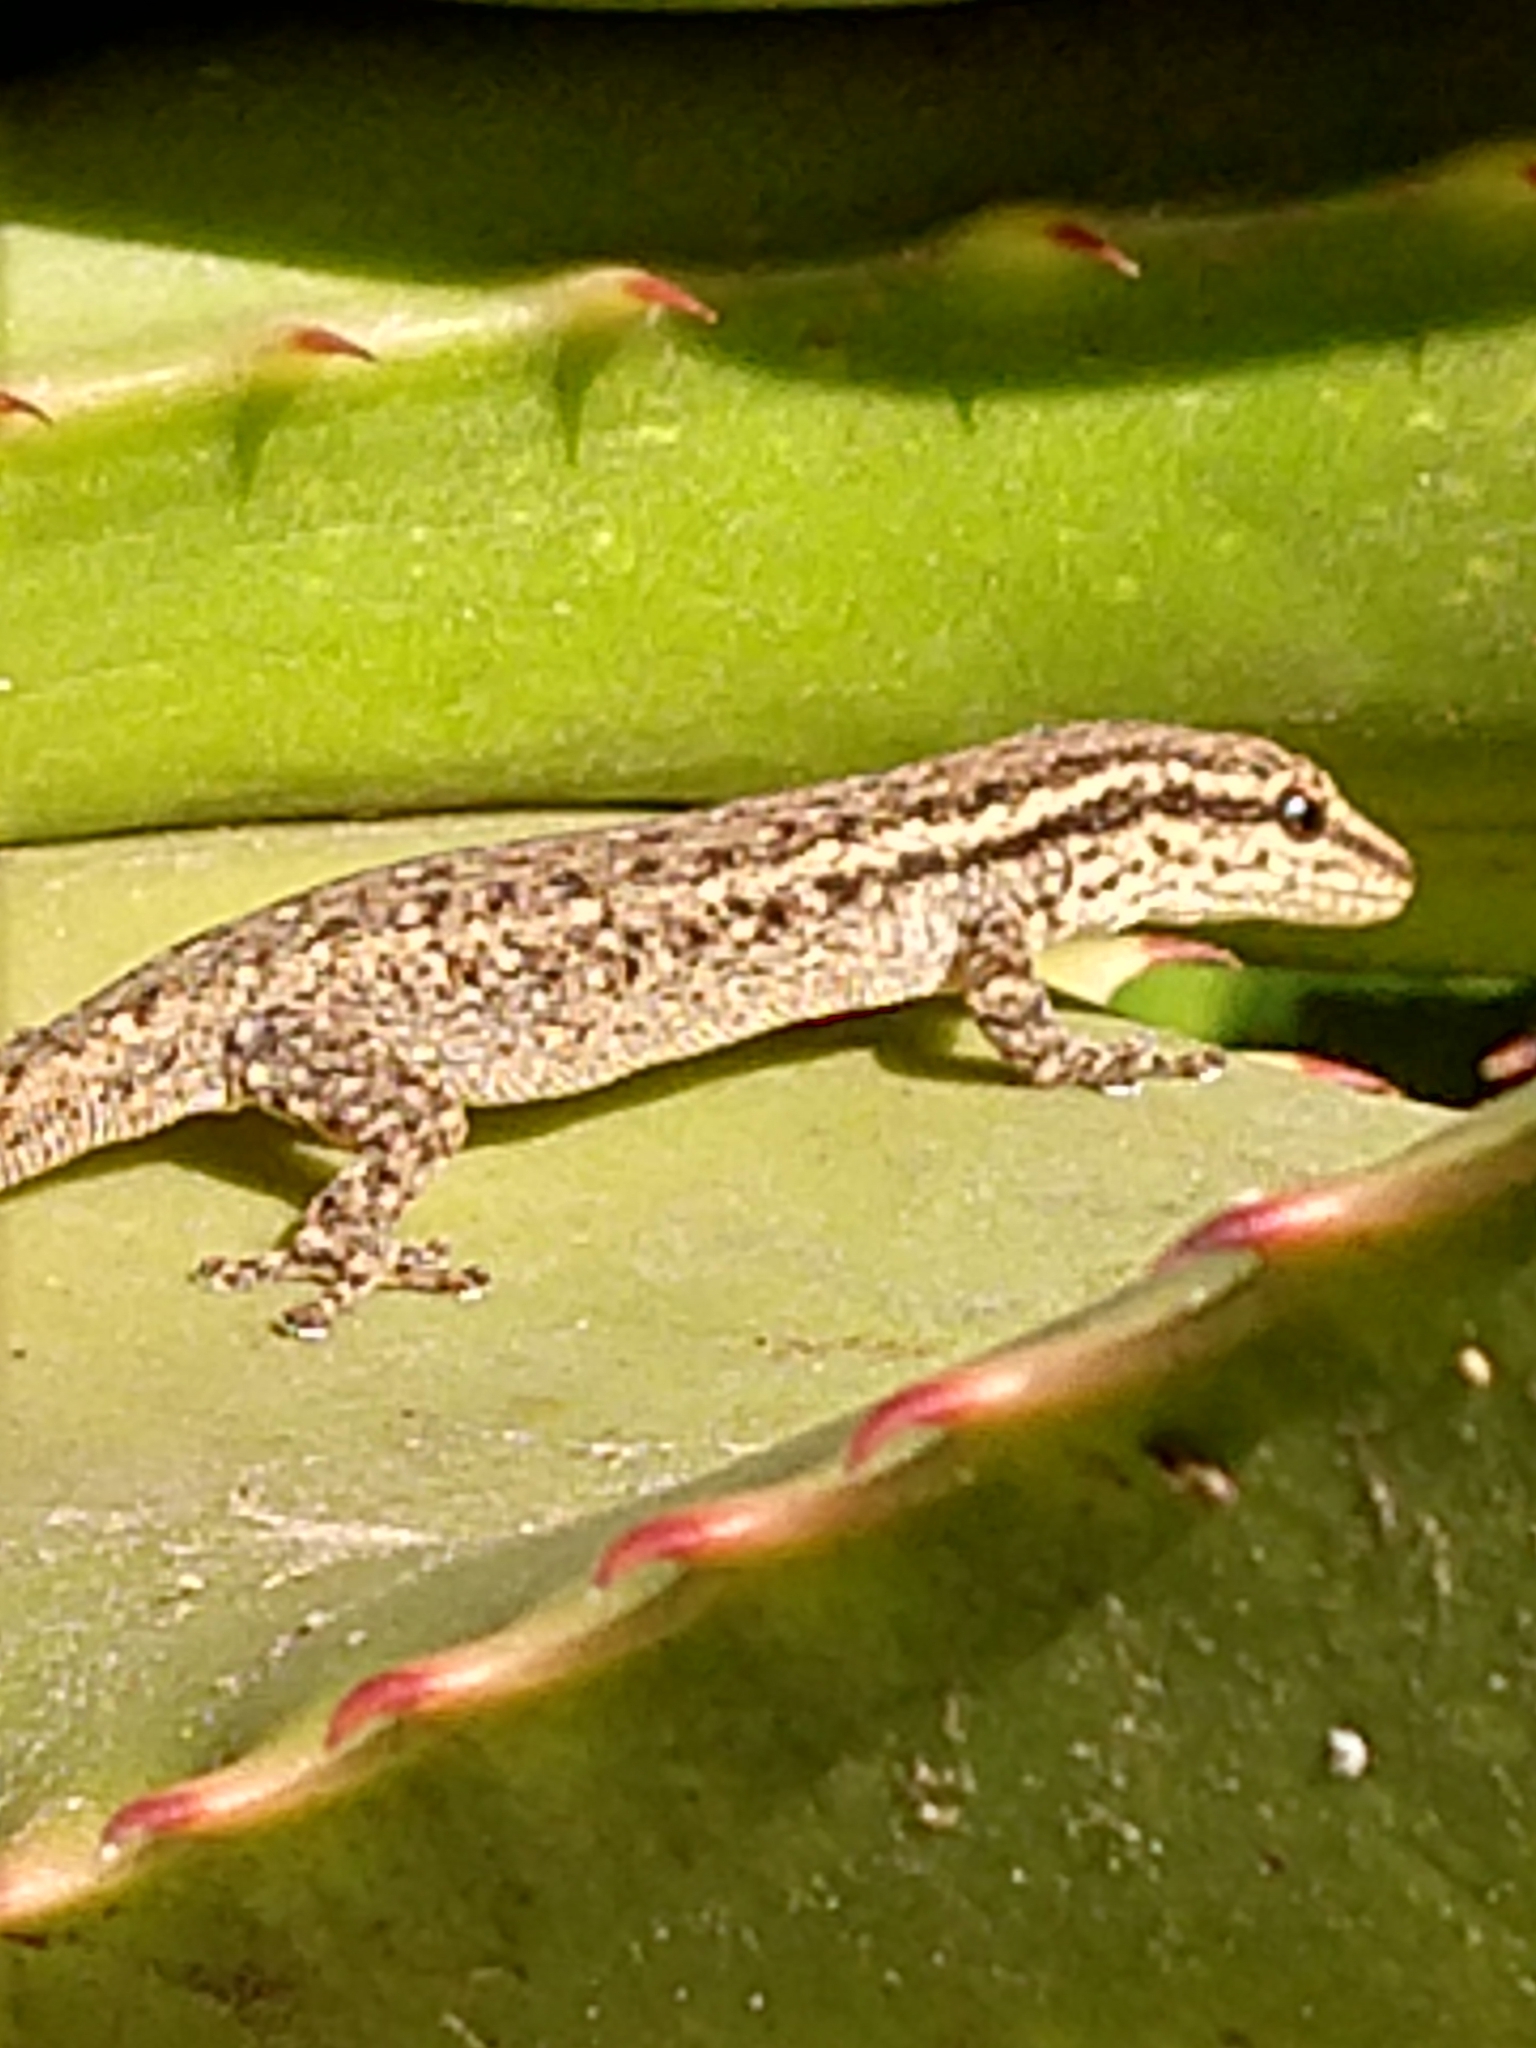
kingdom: Animalia
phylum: Chordata
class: Squamata
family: Gekkonidae
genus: Lygodactylus
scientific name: Lygodactylus capensis
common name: Cape dwarf gecko
